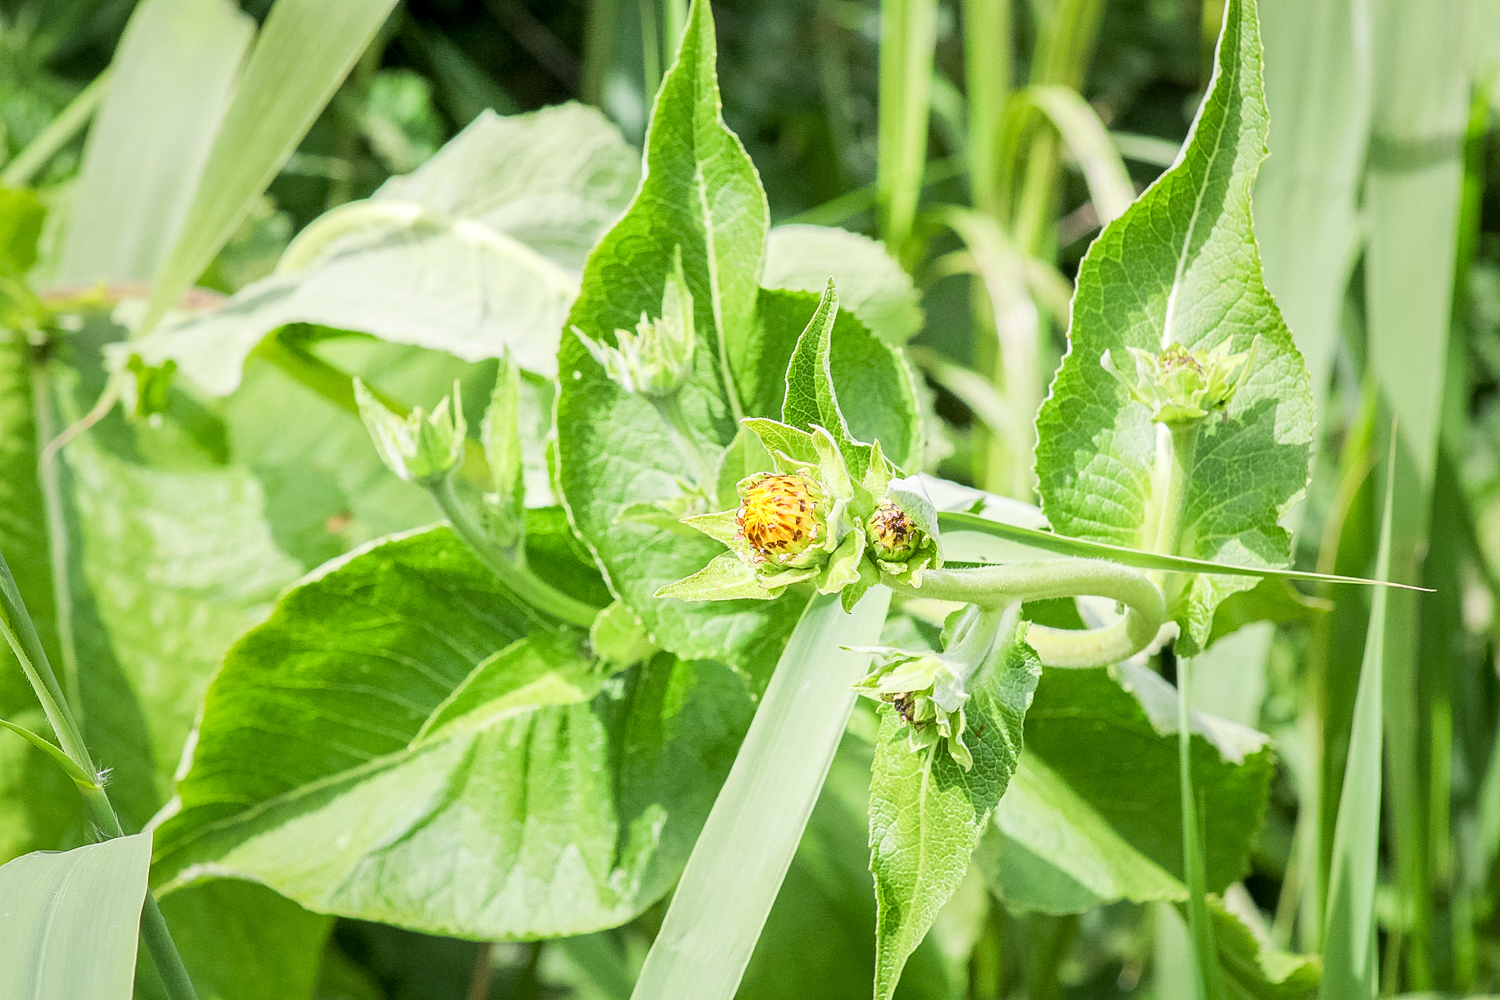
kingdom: Plantae
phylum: Tracheophyta
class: Magnoliopsida
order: Asterales
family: Asteraceae
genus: Inula
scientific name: Inula helenium
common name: Elecampane
